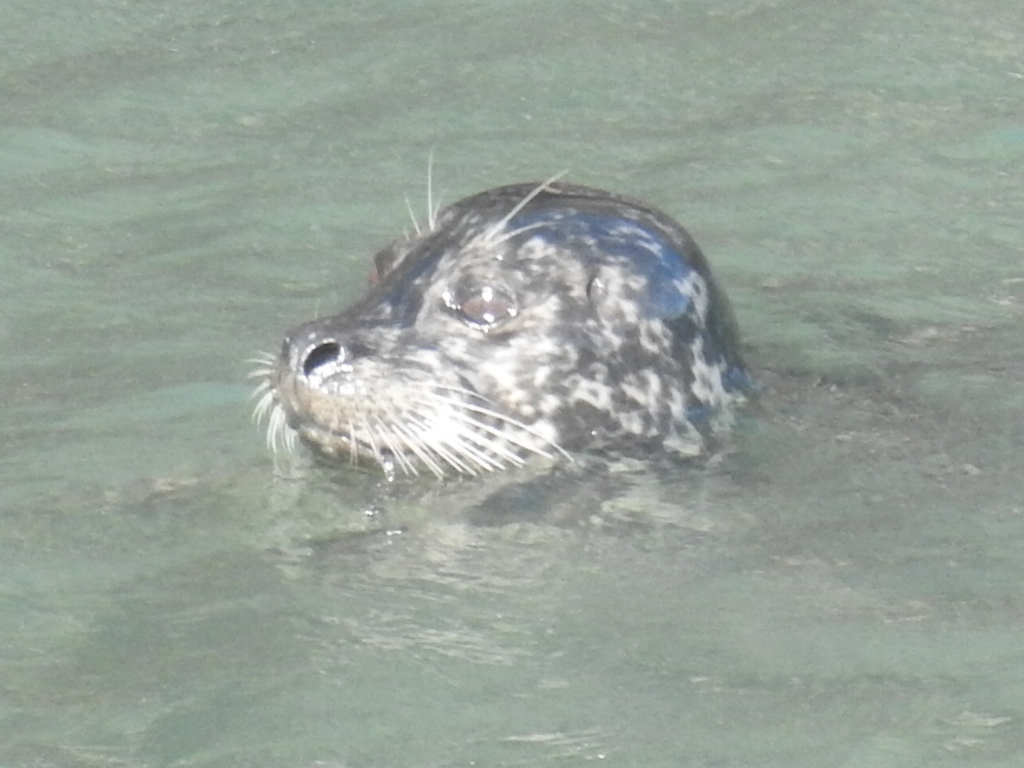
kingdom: Animalia
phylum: Chordata
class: Mammalia
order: Carnivora
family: Phocidae
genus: Phoca
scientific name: Phoca vitulina
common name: Harbor seal
